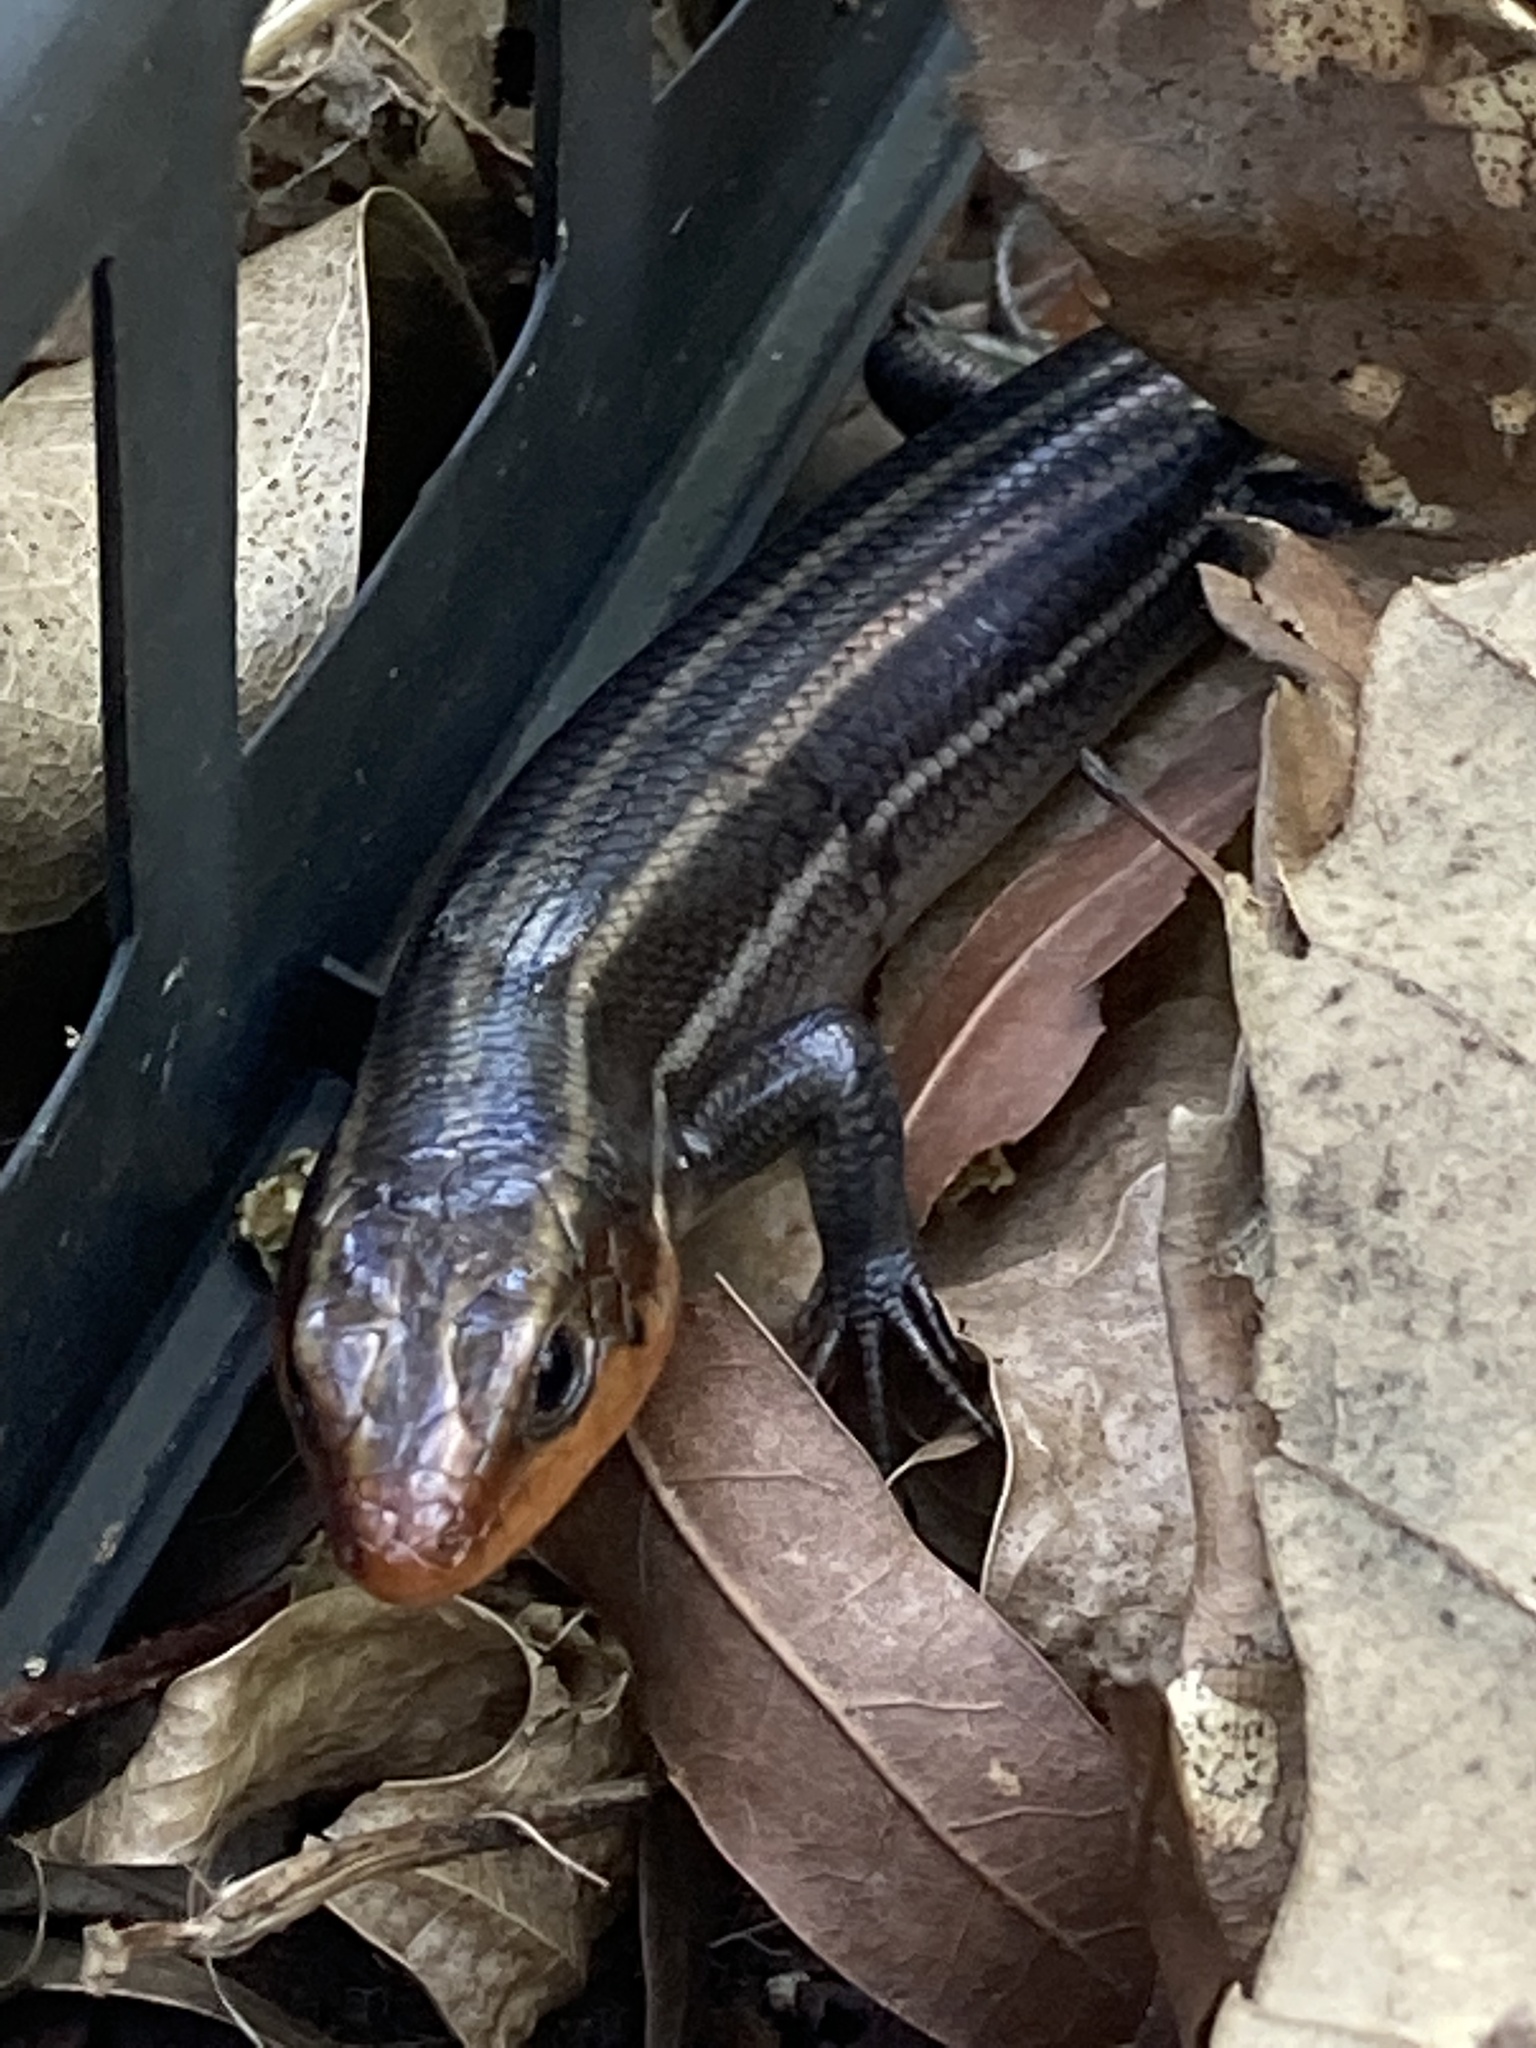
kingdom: Animalia
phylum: Chordata
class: Squamata
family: Scincidae
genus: Plestiodon
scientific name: Plestiodon fasciatus
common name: Five-lined skink
